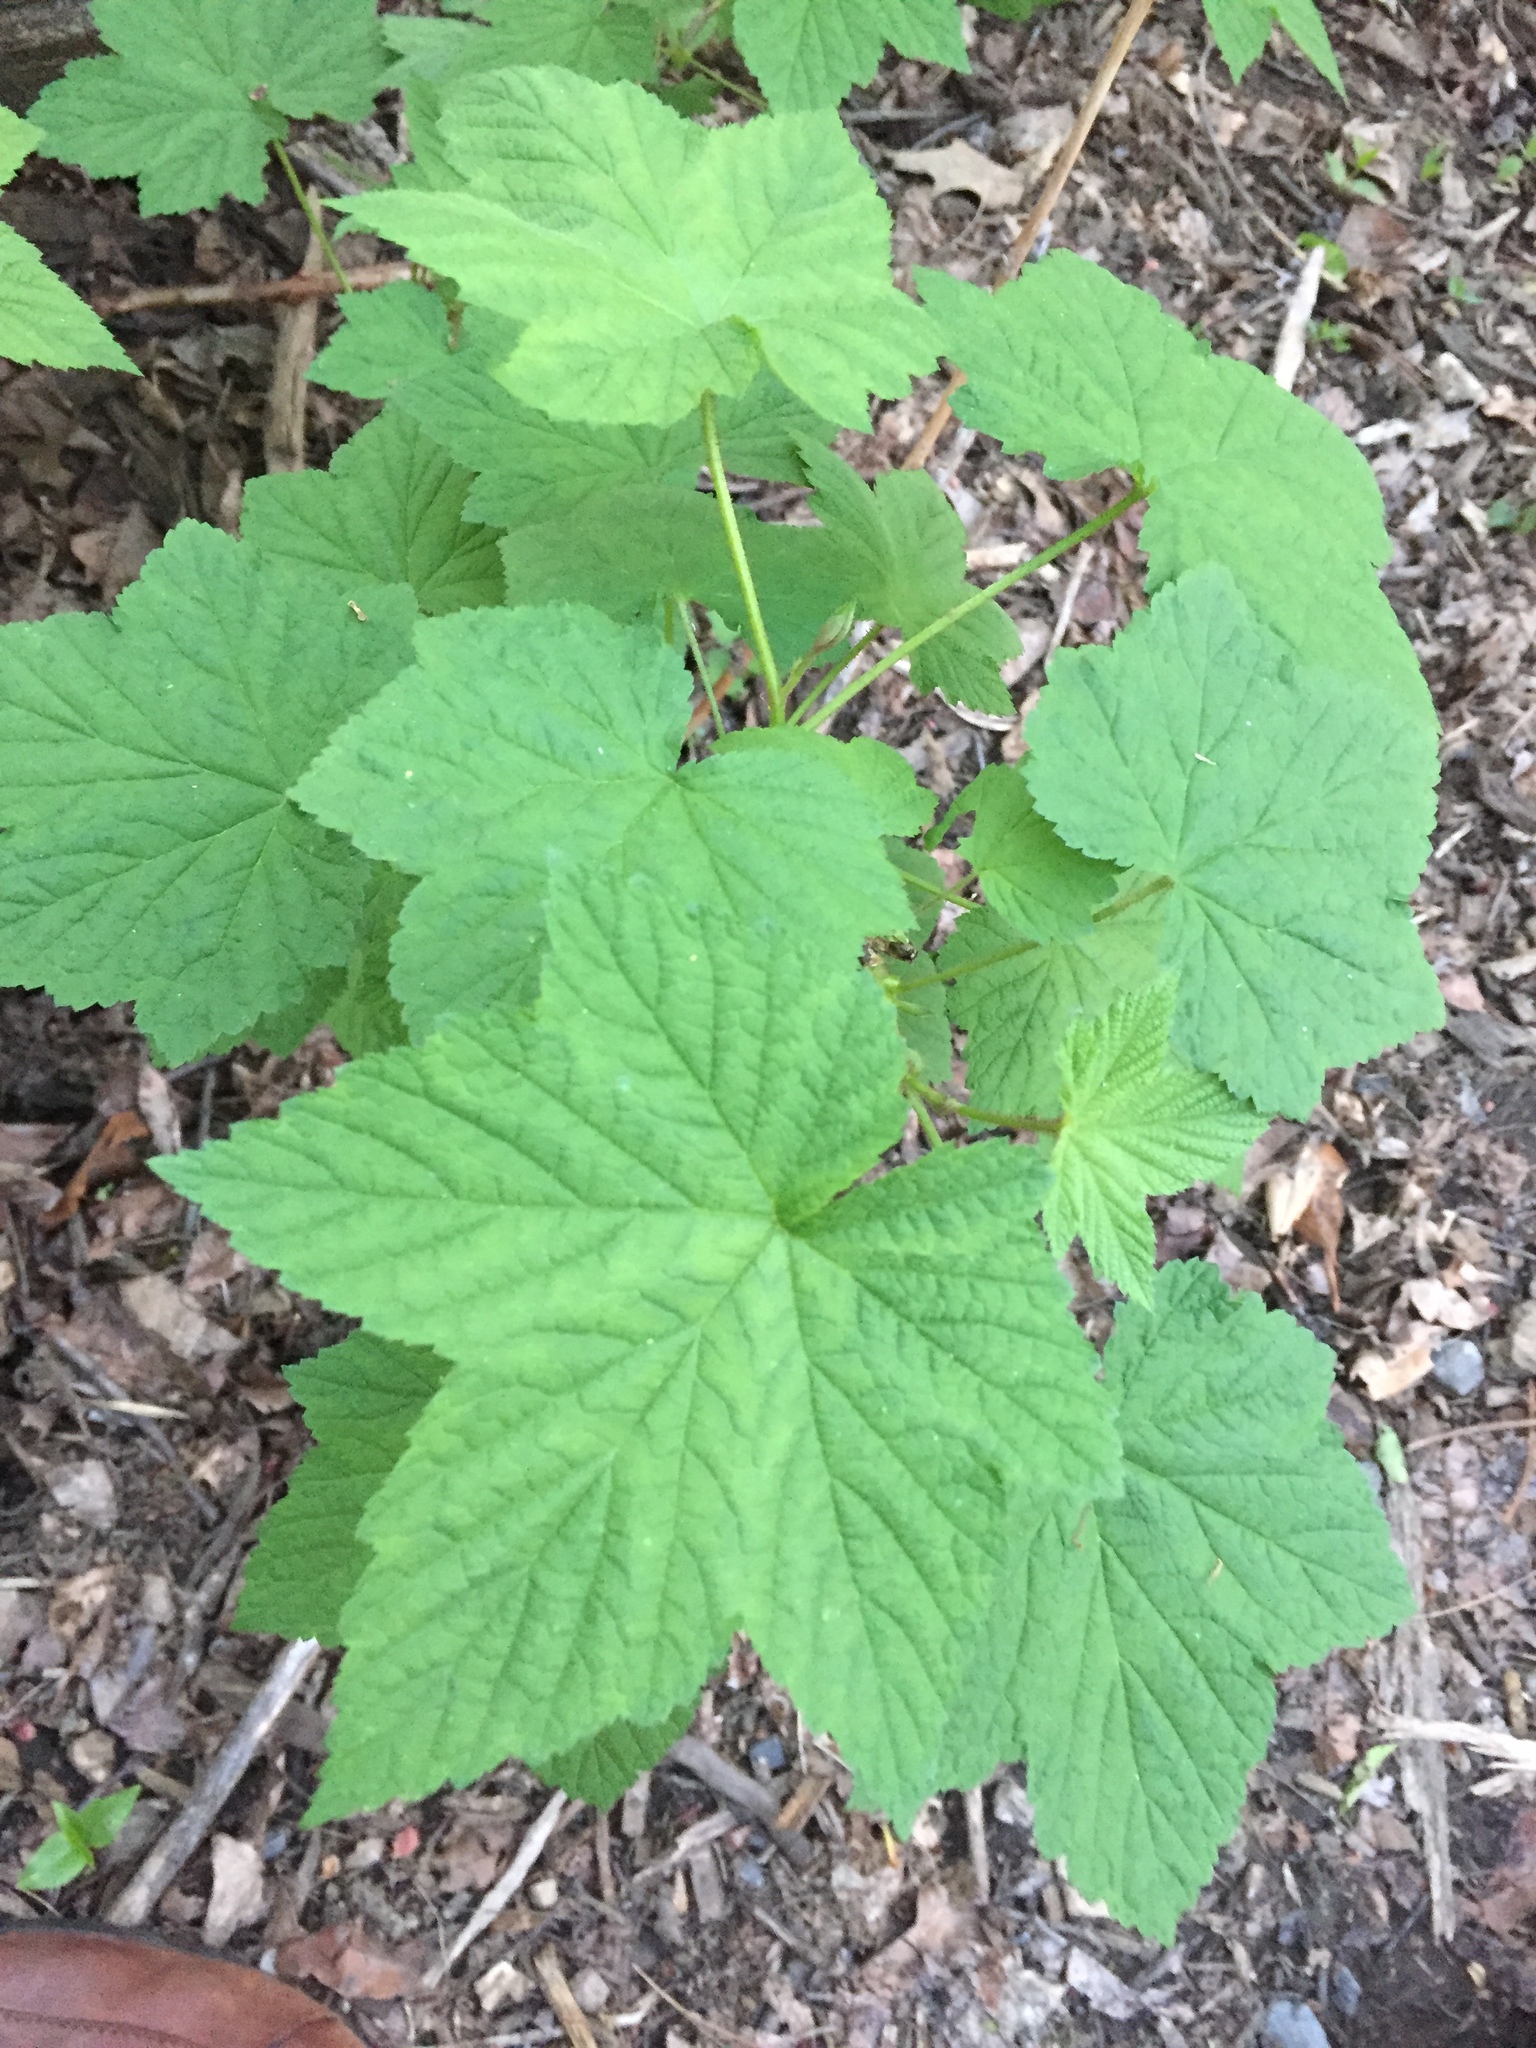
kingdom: Plantae
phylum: Tracheophyta
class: Magnoliopsida
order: Rosales
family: Rosaceae
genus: Rubus
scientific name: Rubus odoratus
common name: Purple-flowered raspberry
